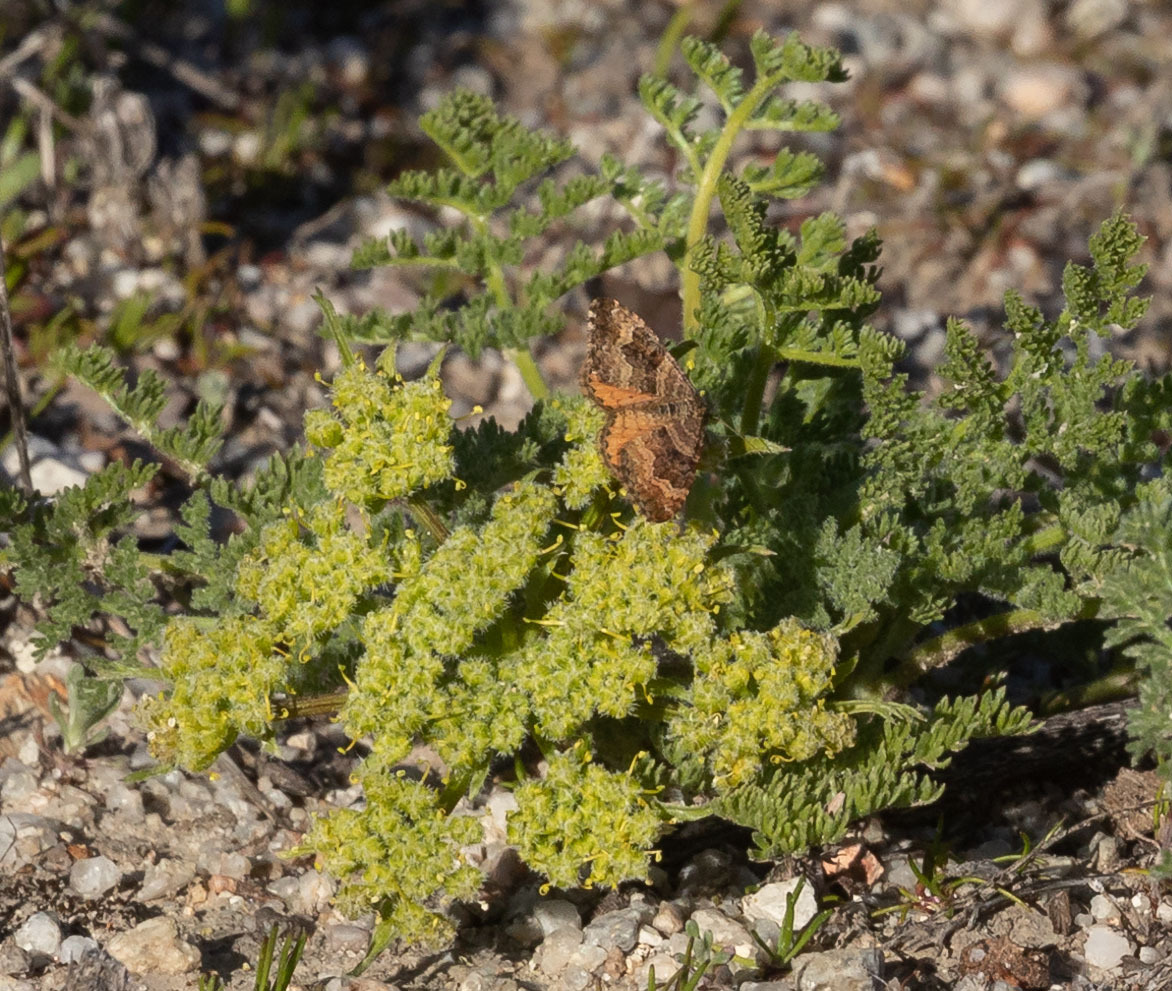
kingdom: Animalia
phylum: Arthropoda
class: Insecta
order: Lepidoptera
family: Geometridae
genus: Epirrhoe
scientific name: Epirrhoe plebeculata
